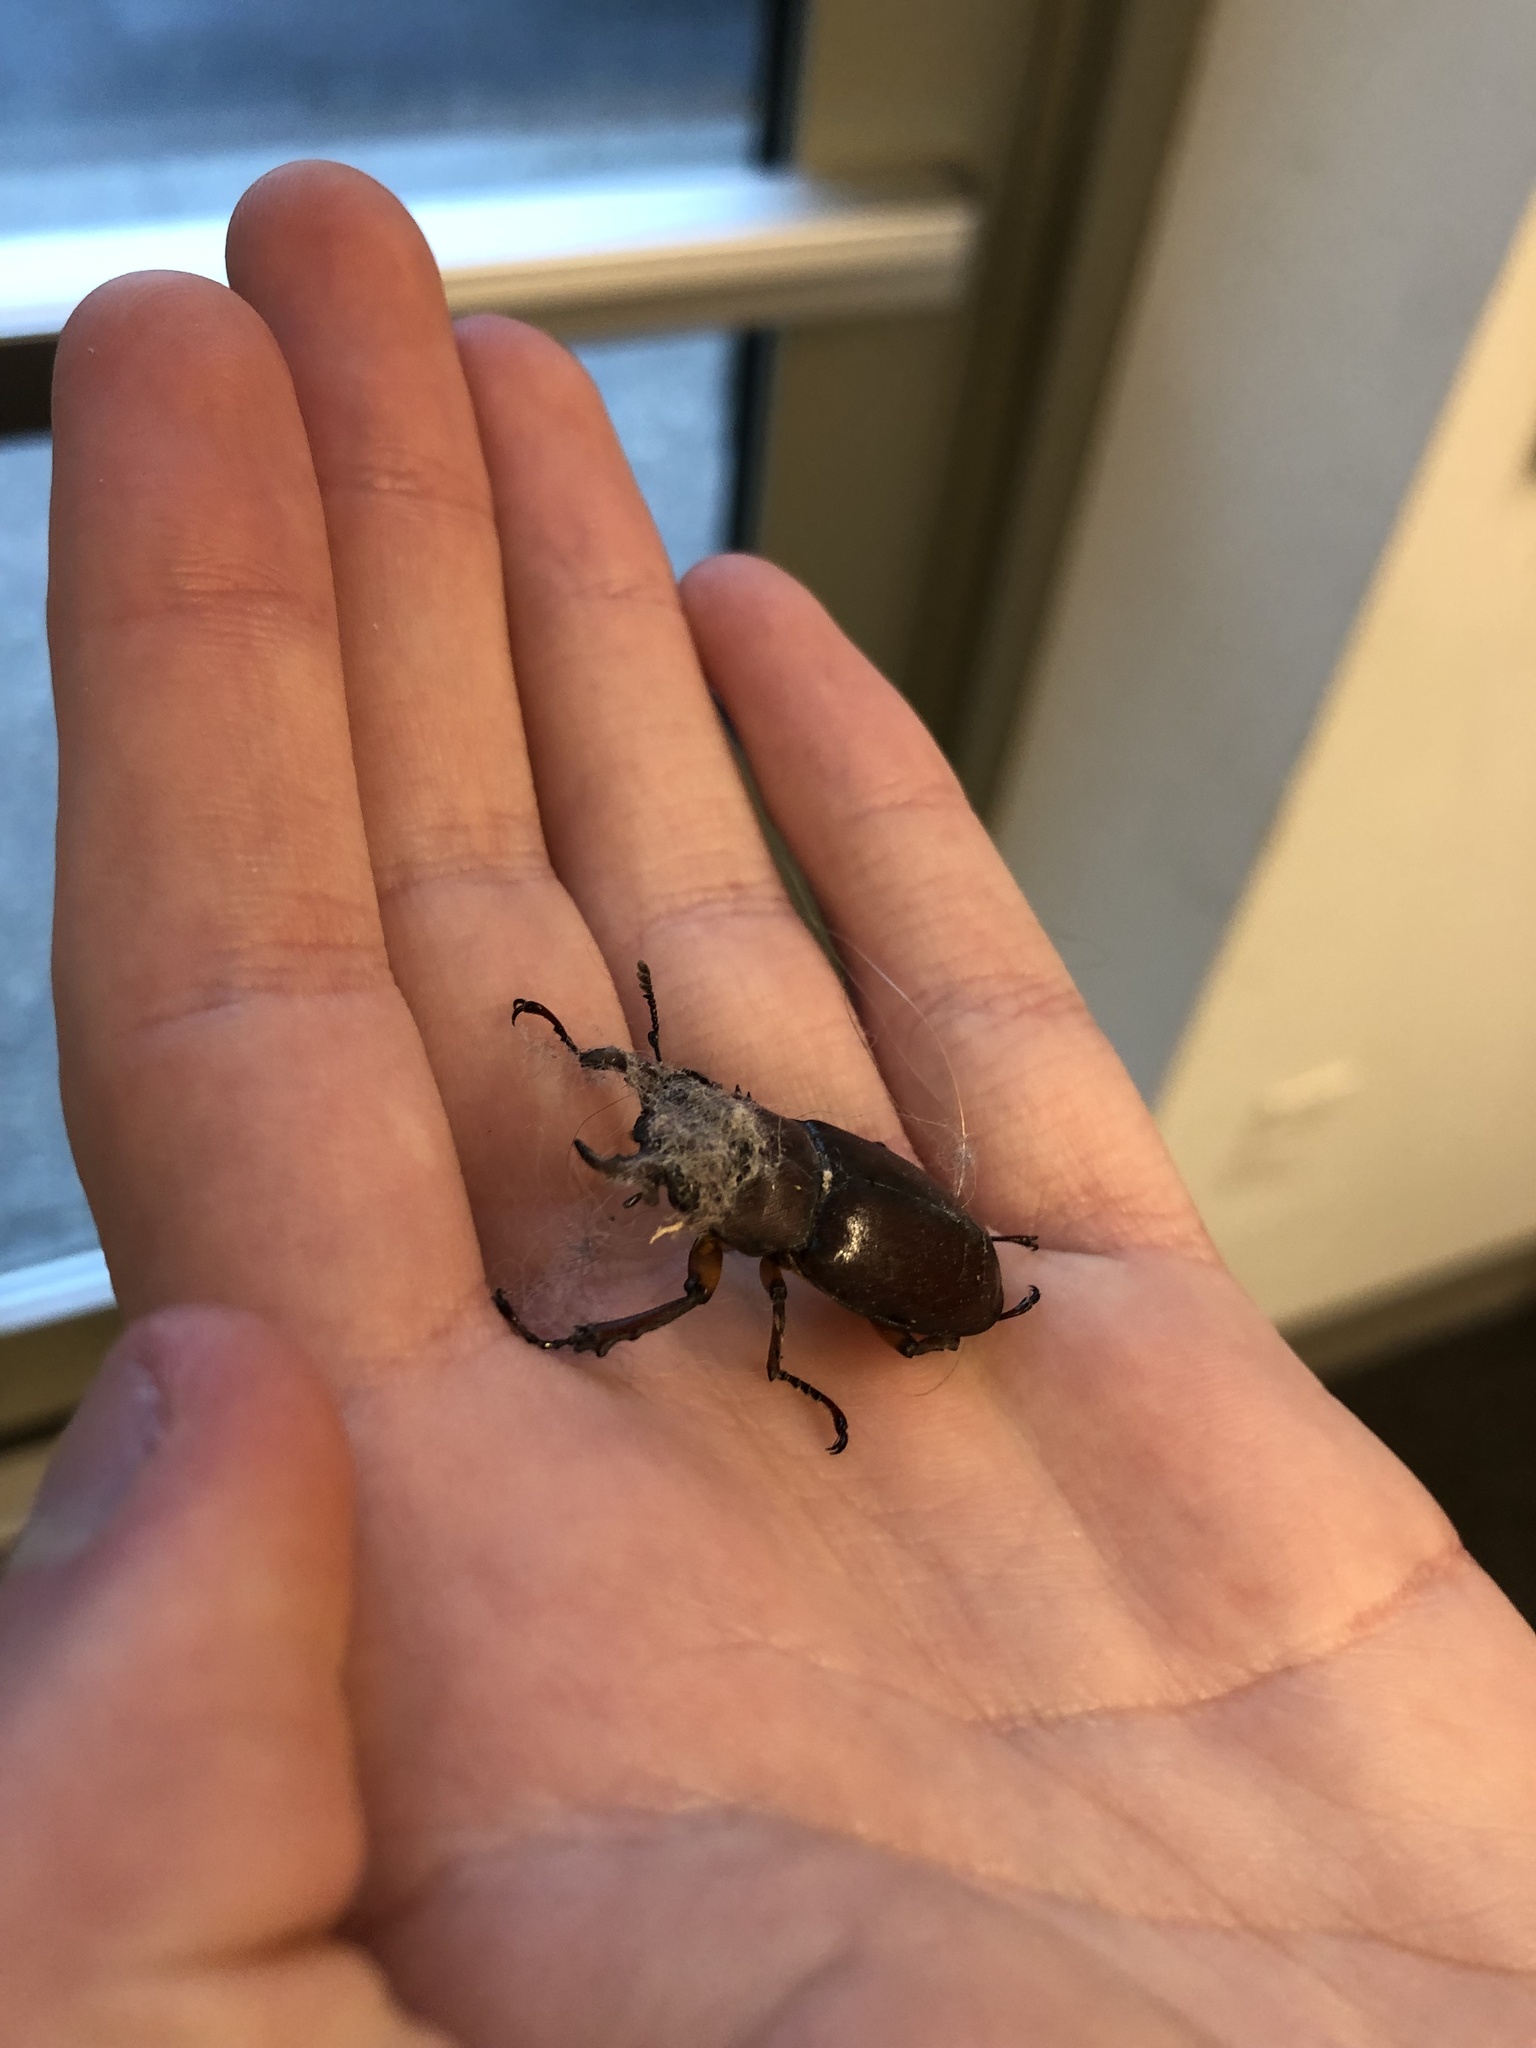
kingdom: Animalia
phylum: Arthropoda
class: Insecta
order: Coleoptera
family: Lucanidae
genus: Lucanus
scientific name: Lucanus capreolus
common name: Stag beetle
